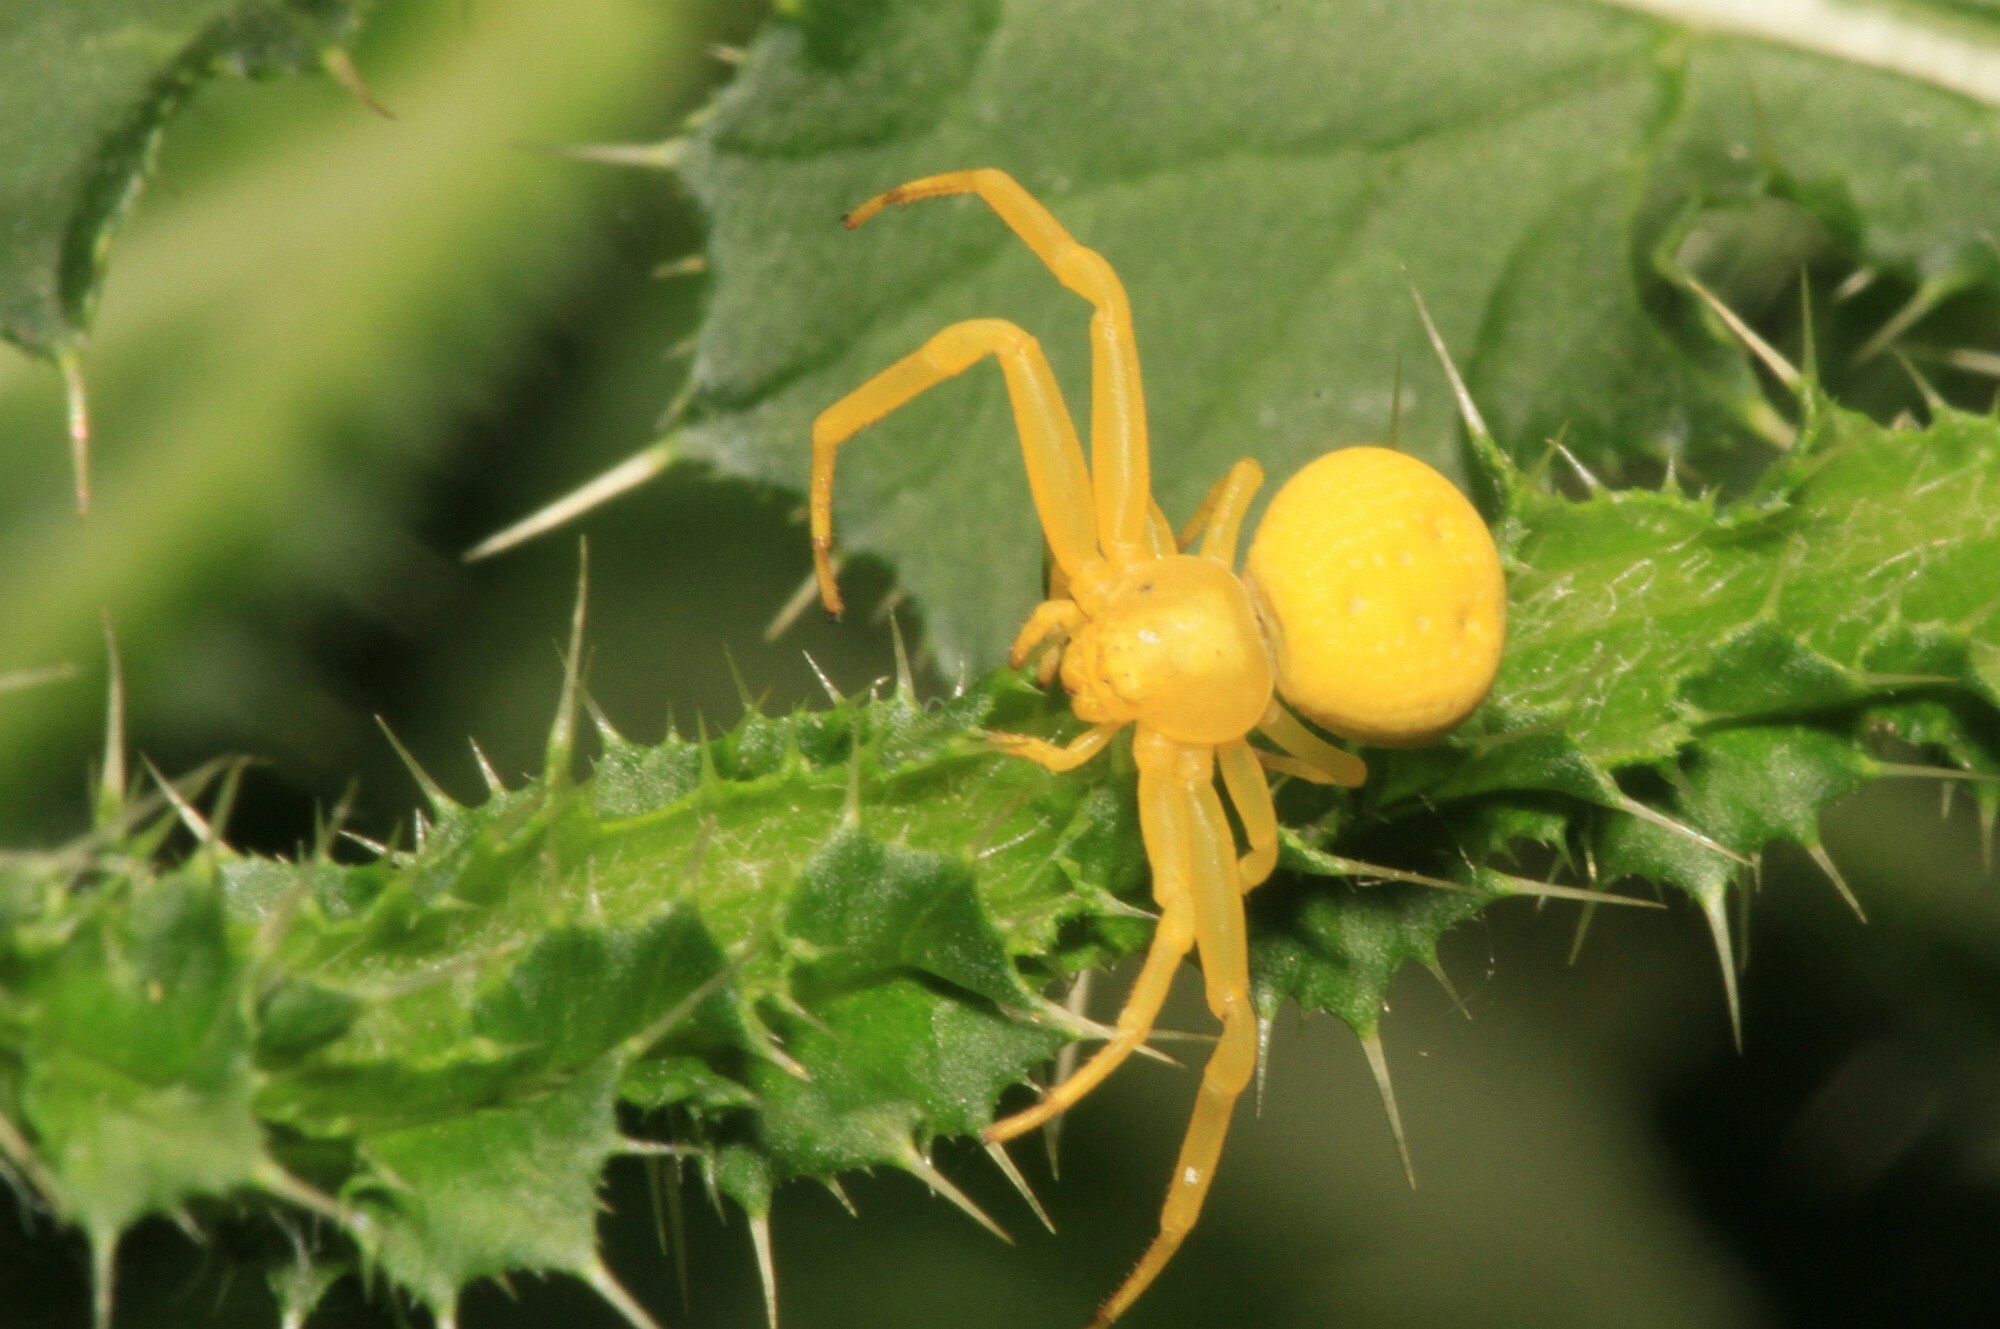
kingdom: Animalia
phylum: Arthropoda
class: Arachnida
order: Araneae
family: Thomisidae
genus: Misumena
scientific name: Misumena vatia
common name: Goldenrod crab spider
